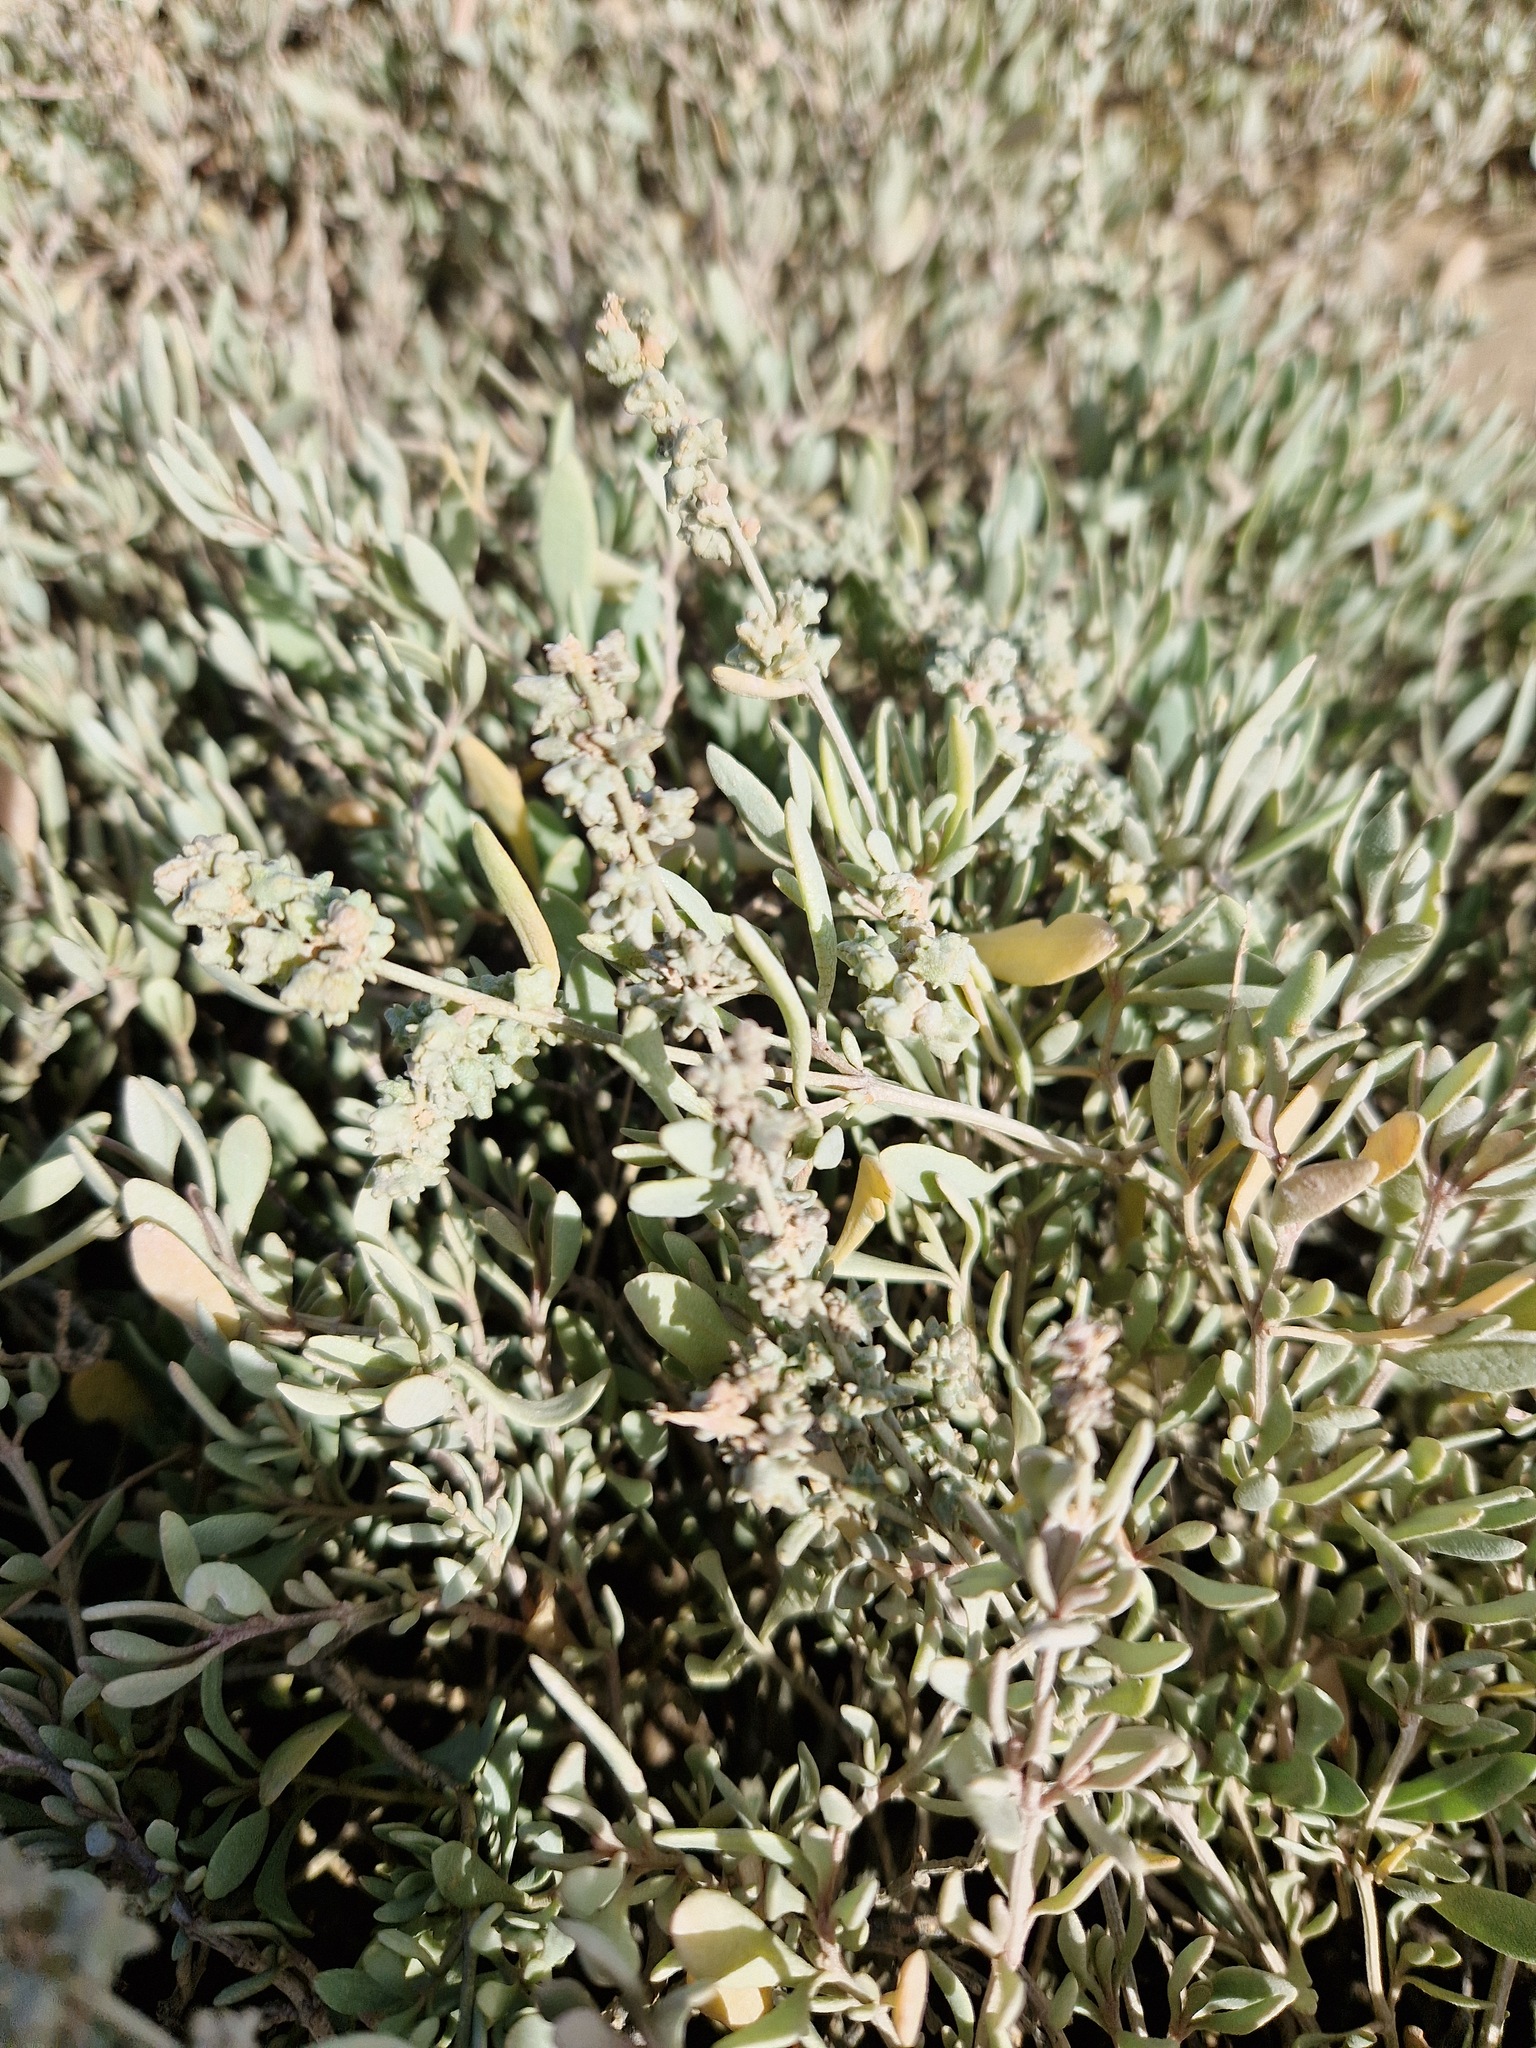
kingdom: Plantae
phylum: Tracheophyta
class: Magnoliopsida
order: Caryophyllales
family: Amaranthaceae
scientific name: Amaranthaceae
